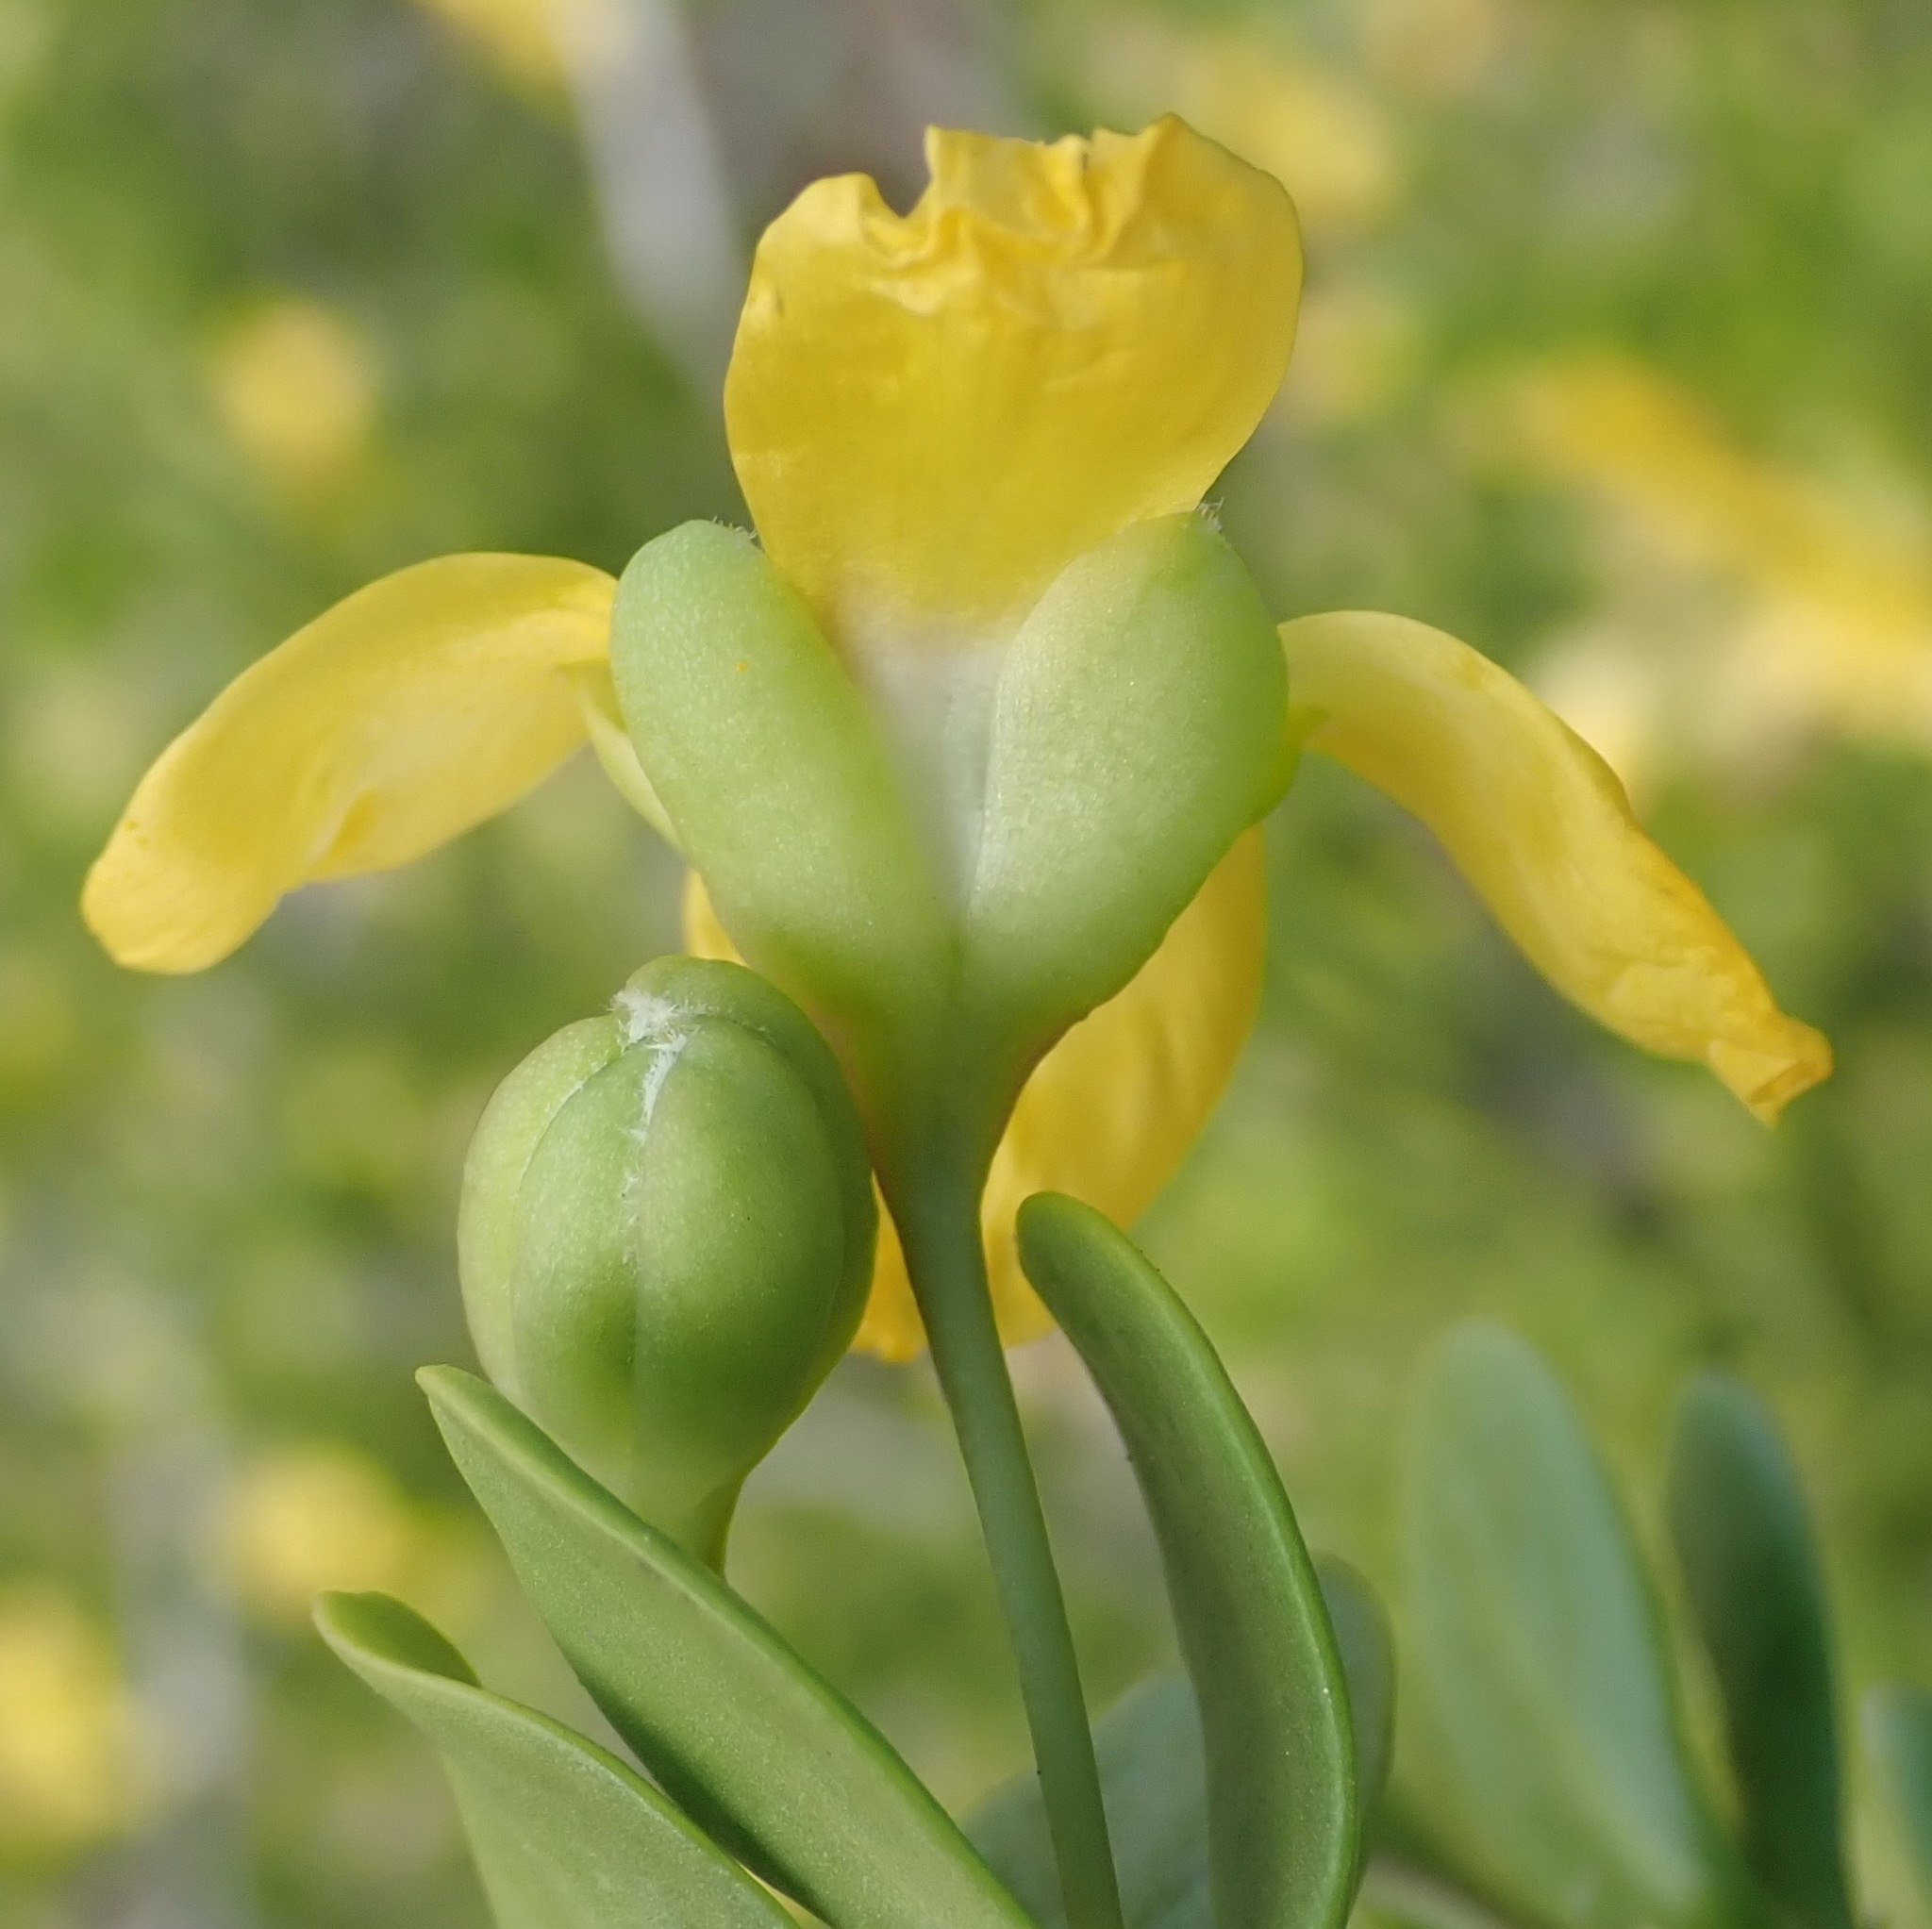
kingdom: Plantae
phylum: Tracheophyta
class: Magnoliopsida
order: Zygophyllales
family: Zygophyllaceae
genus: Roepera
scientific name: Roepera morgsana
